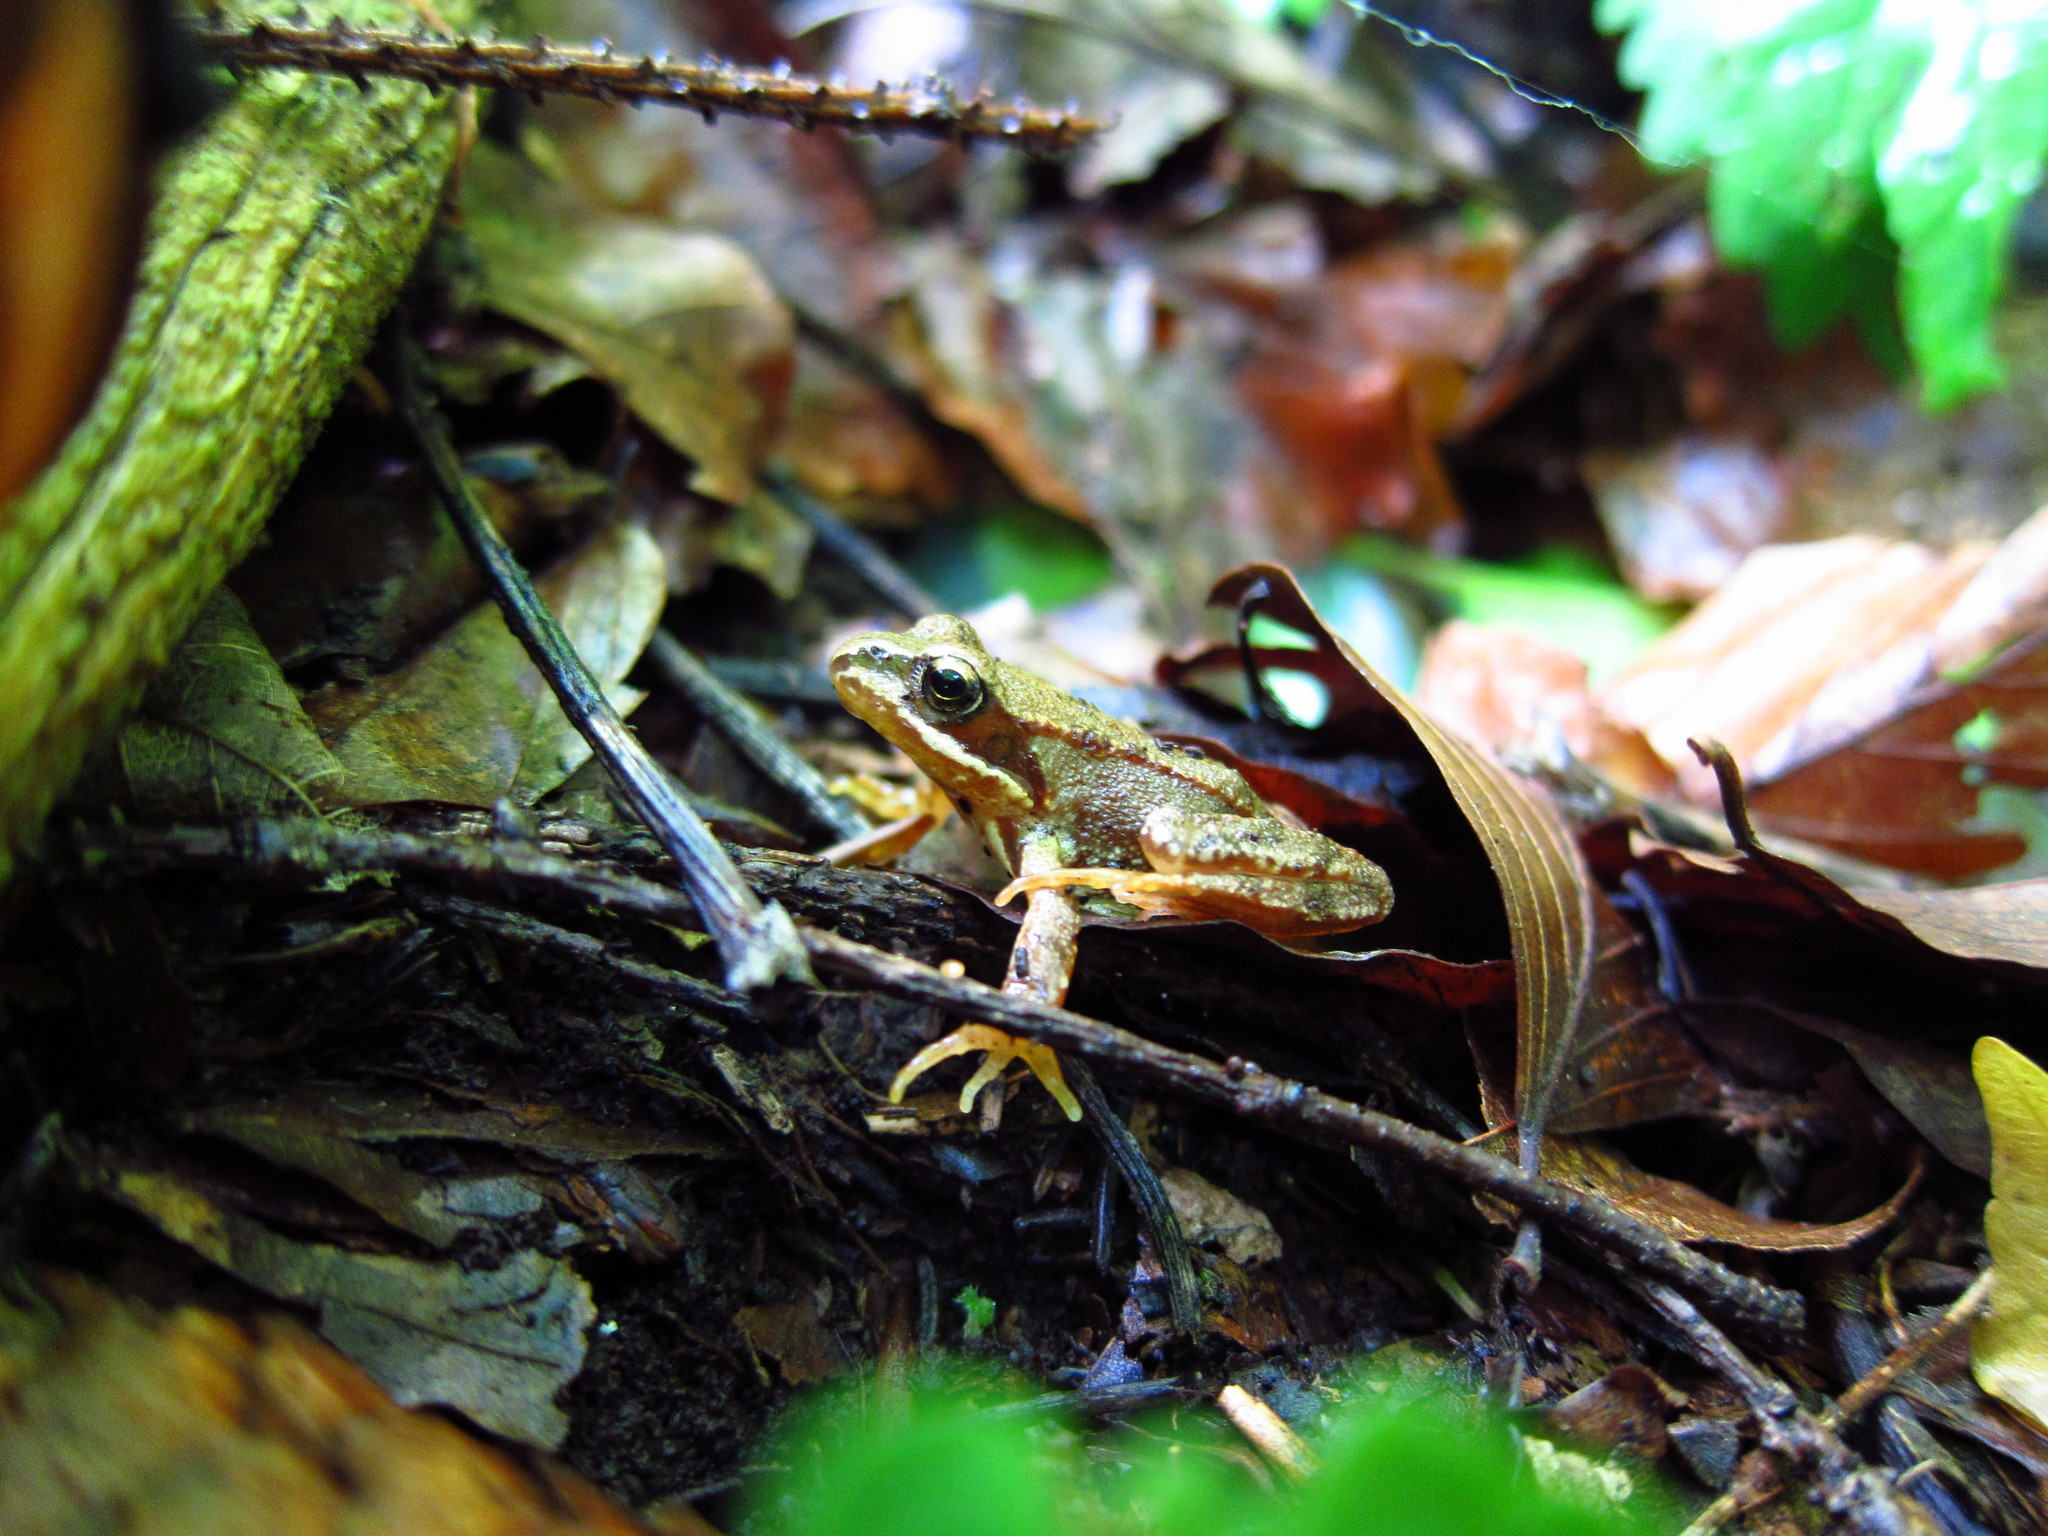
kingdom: Animalia
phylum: Chordata
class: Amphibia
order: Anura
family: Ranidae
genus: Rana
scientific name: Rana temporaria
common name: Common frog
